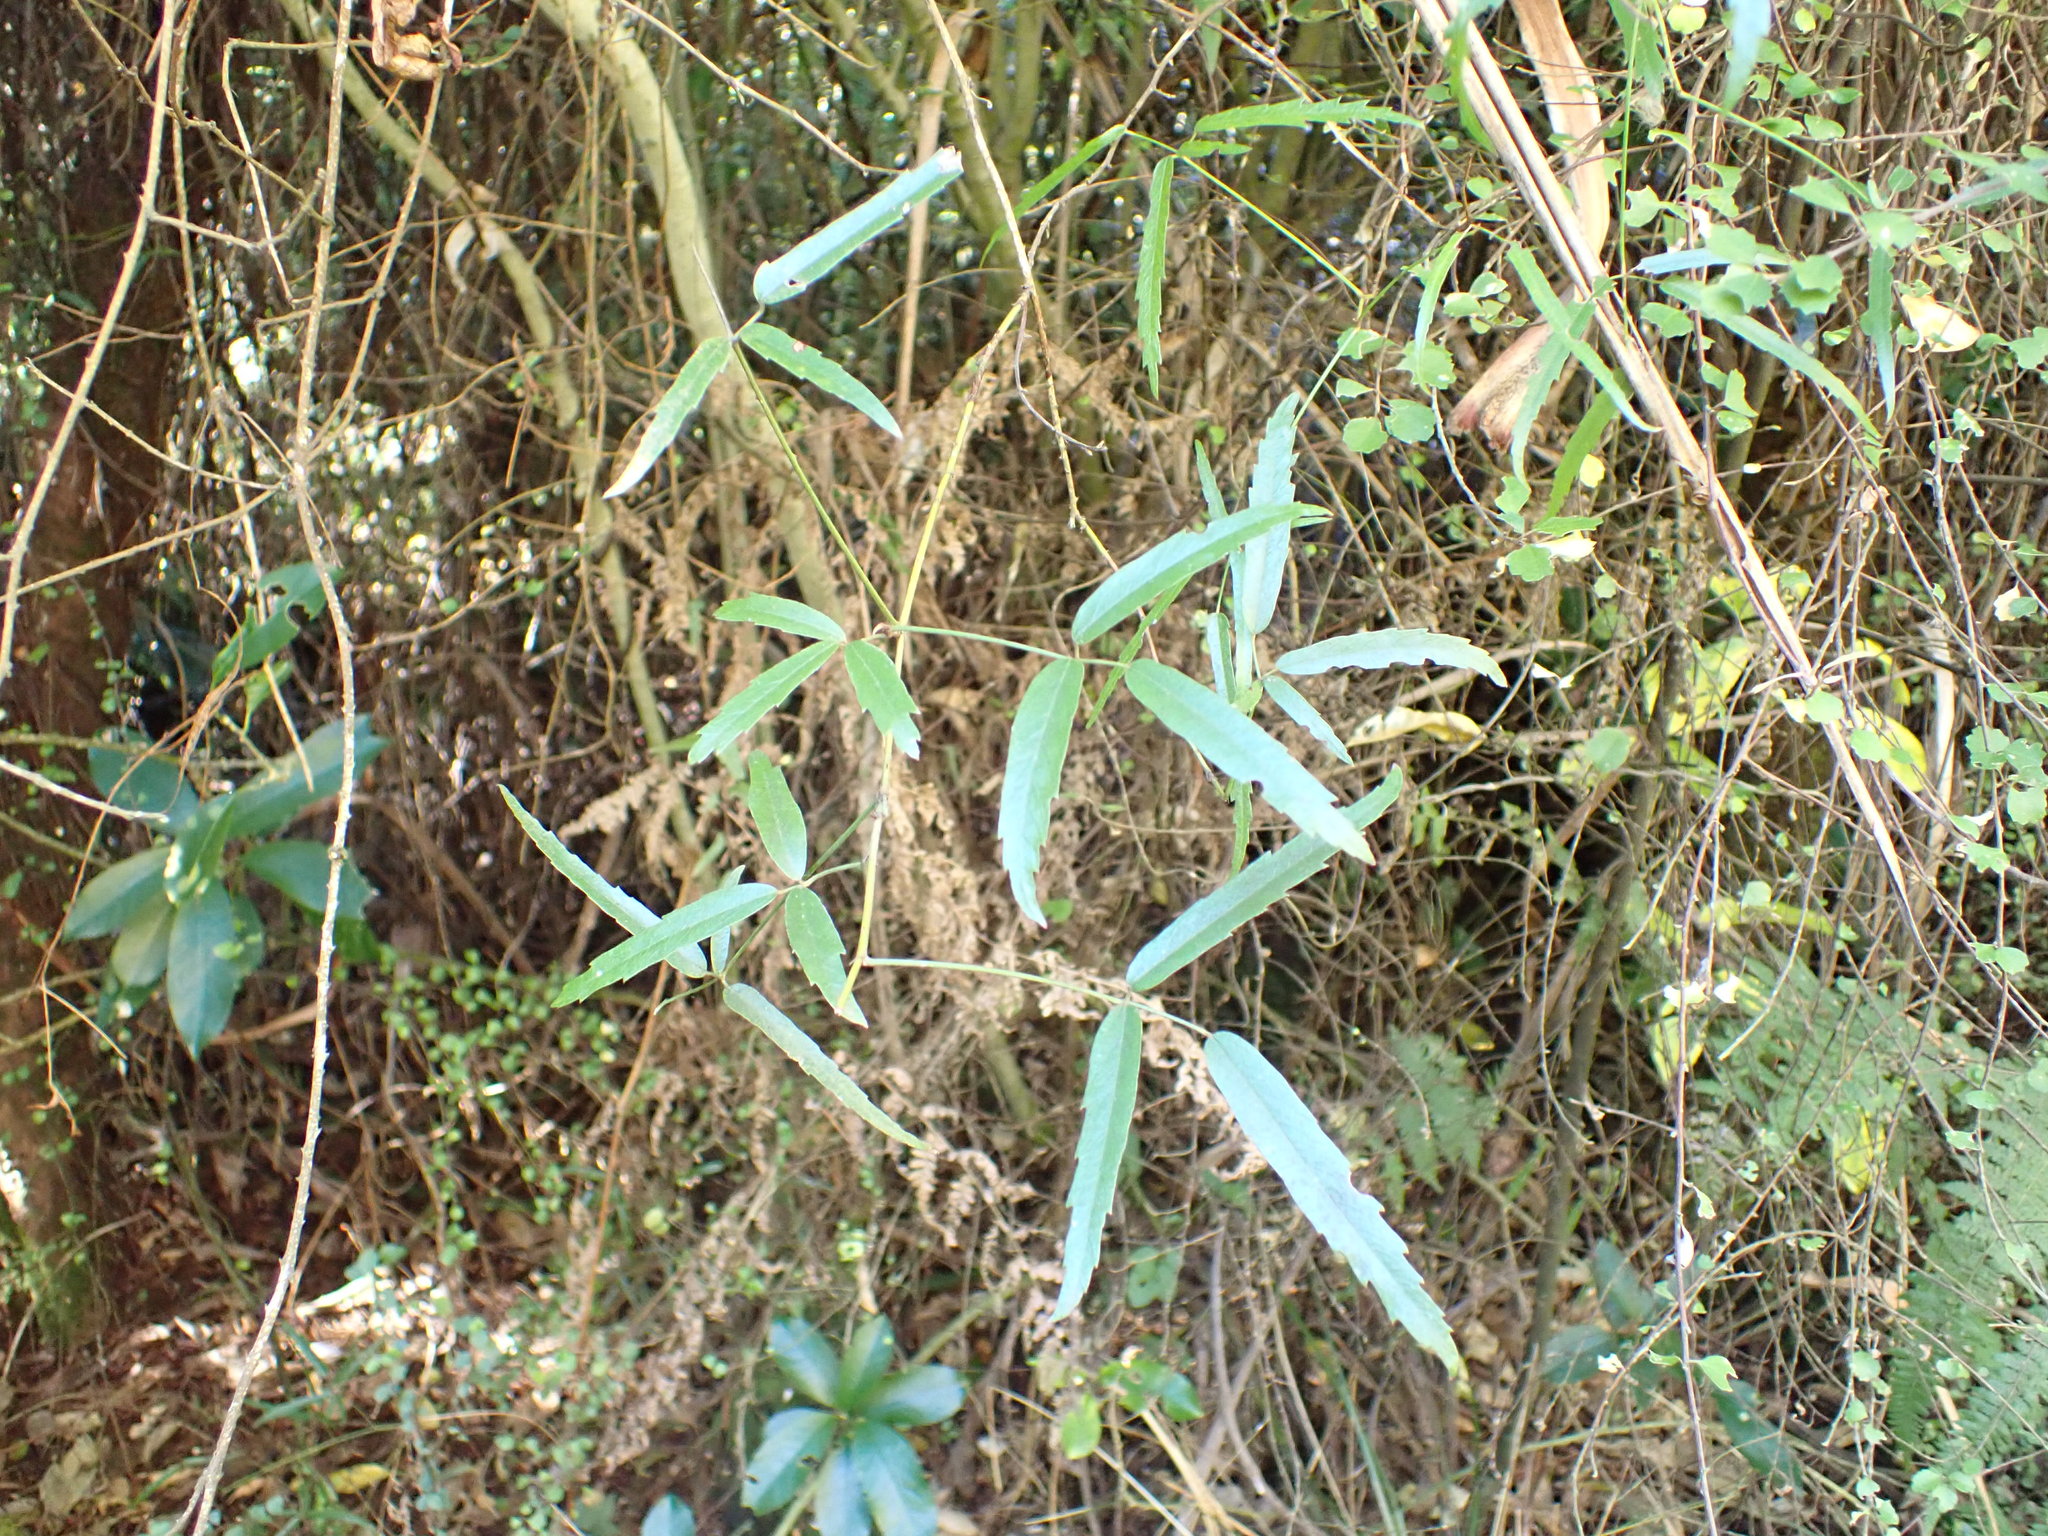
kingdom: Plantae
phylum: Tracheophyta
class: Magnoliopsida
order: Rosales
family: Rosaceae
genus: Rubus
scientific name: Rubus schmidelioides
